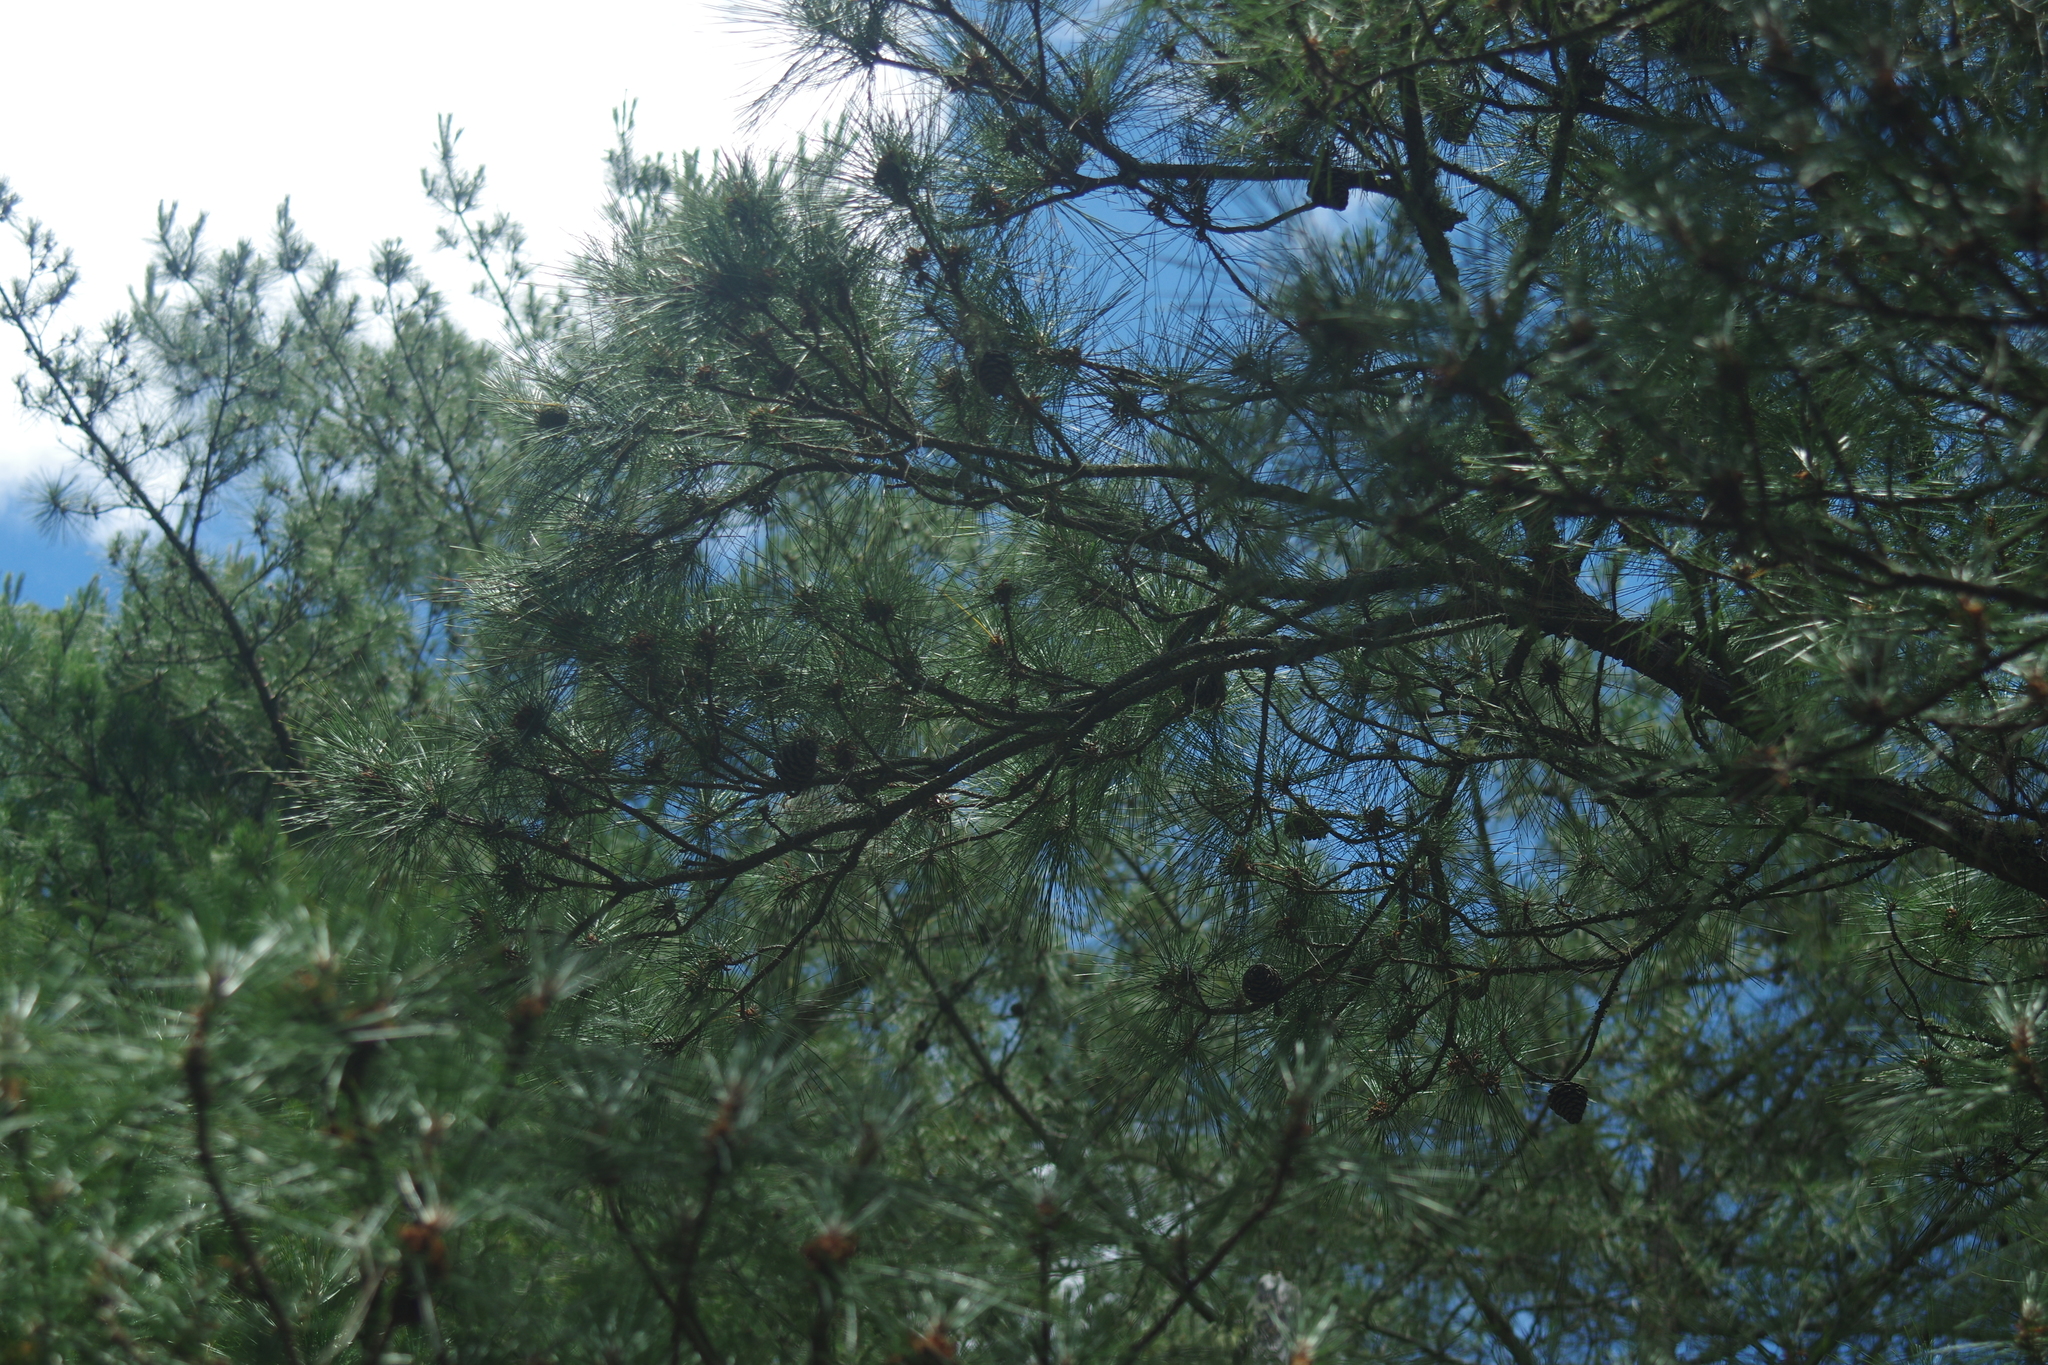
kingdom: Plantae
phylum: Tracheophyta
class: Pinopsida
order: Pinales
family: Pinaceae
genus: Pinus
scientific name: Pinus taiwanensis
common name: Formosa pine
